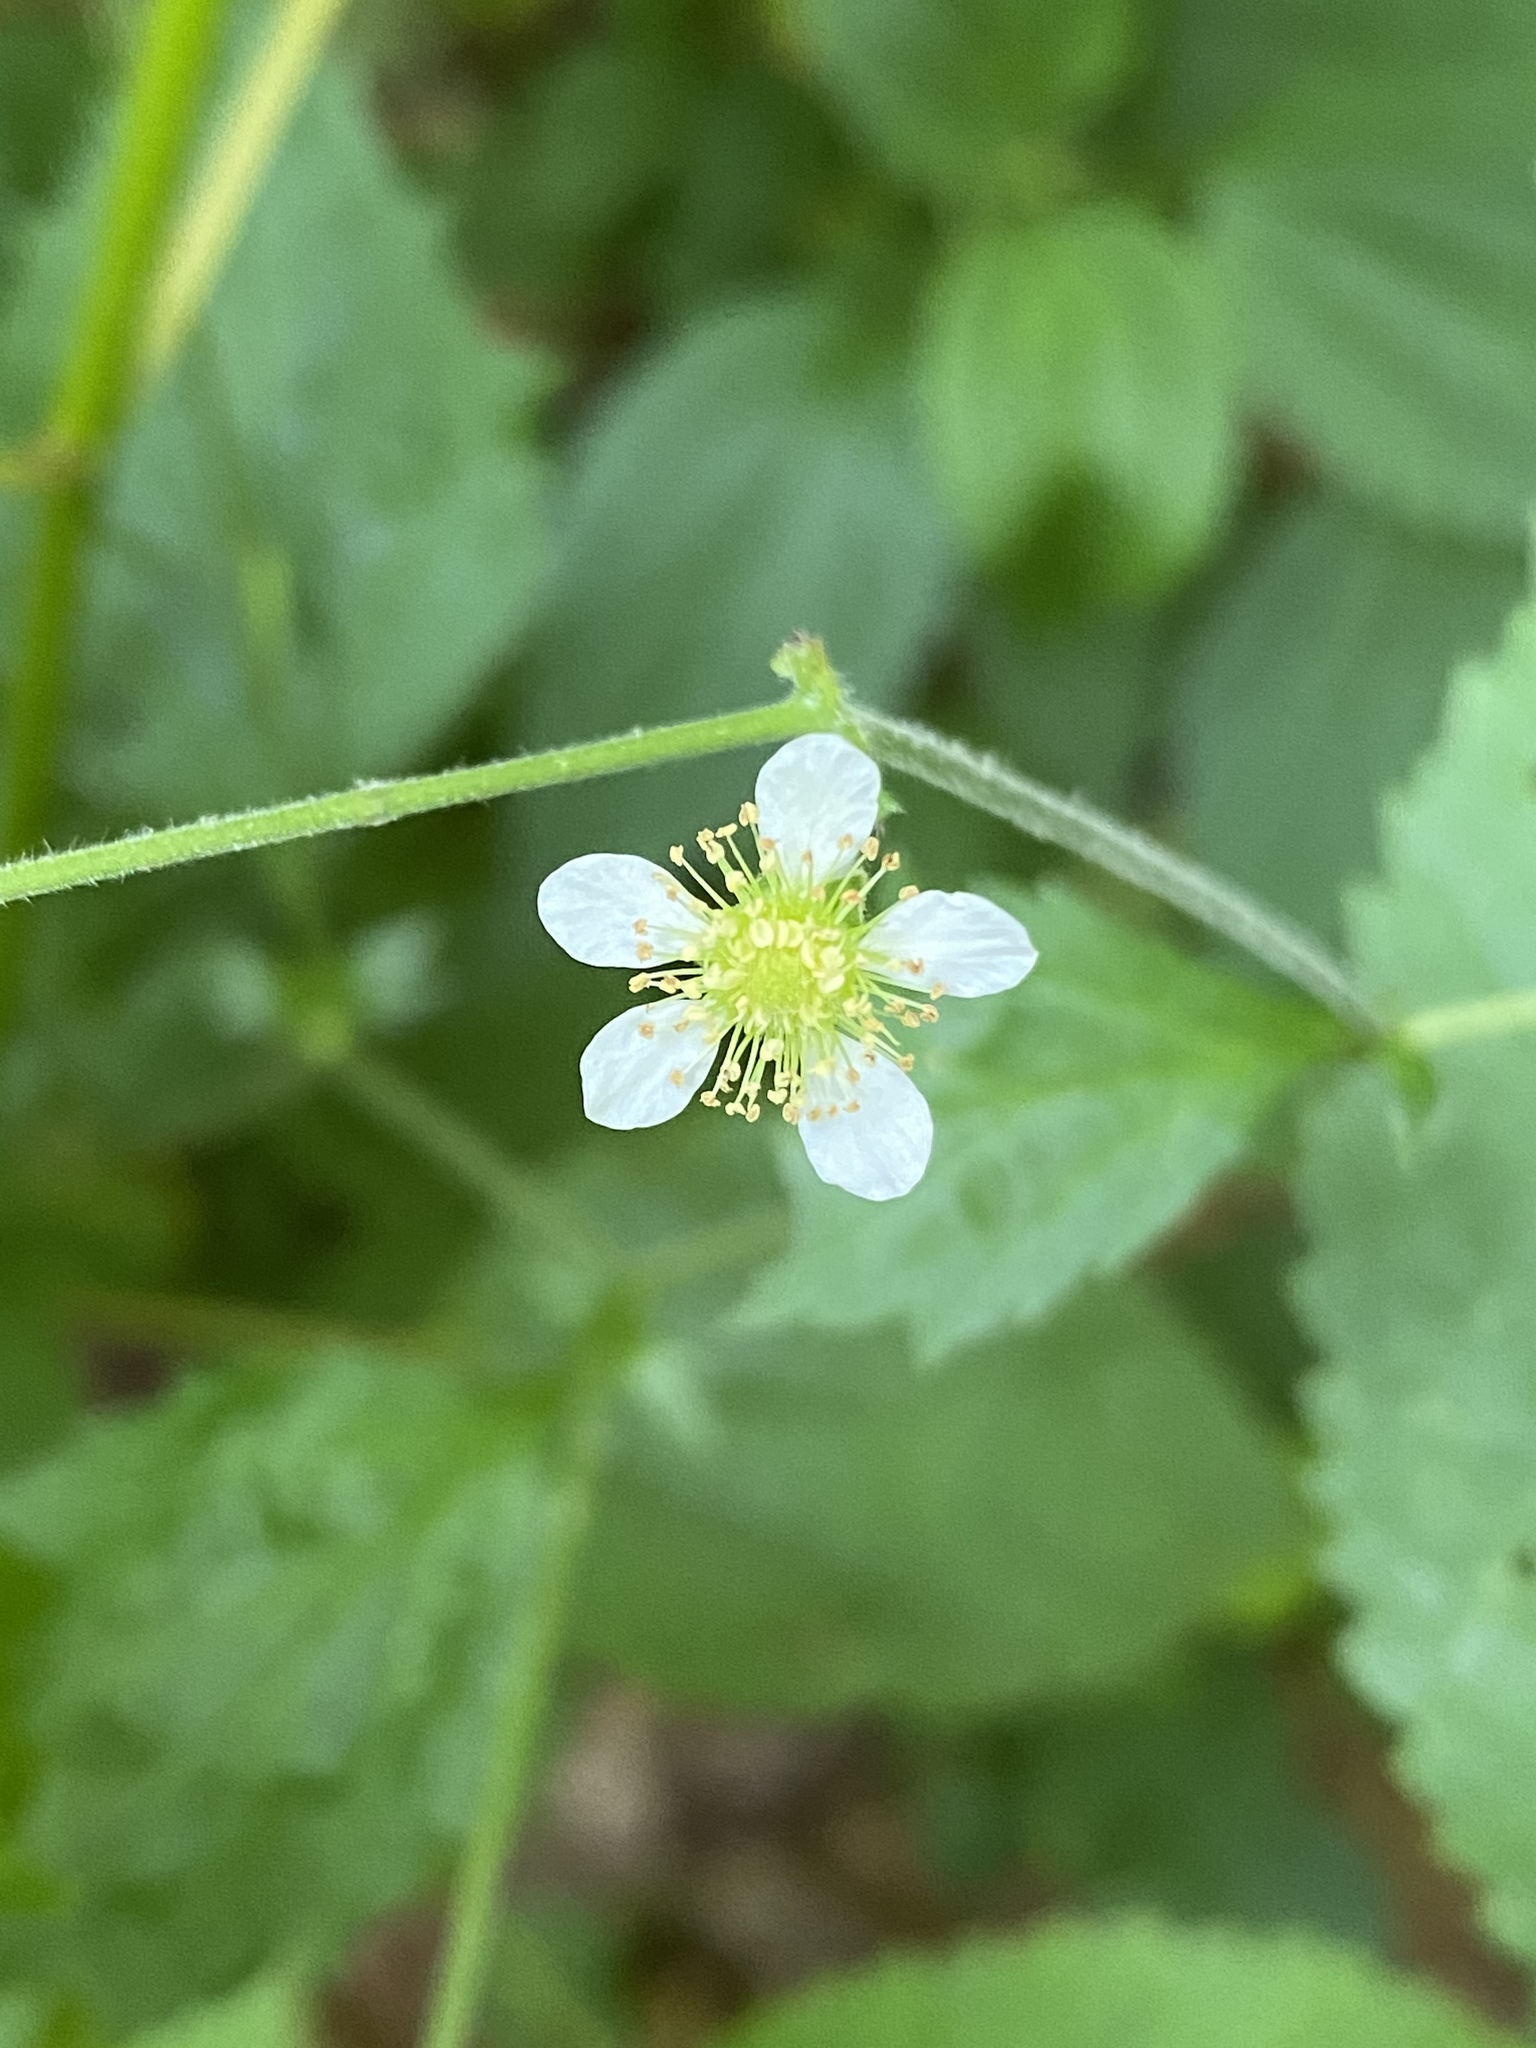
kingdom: Plantae
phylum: Tracheophyta
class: Magnoliopsida
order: Rosales
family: Rosaceae
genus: Geum
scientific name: Geum canadense
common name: White avens
